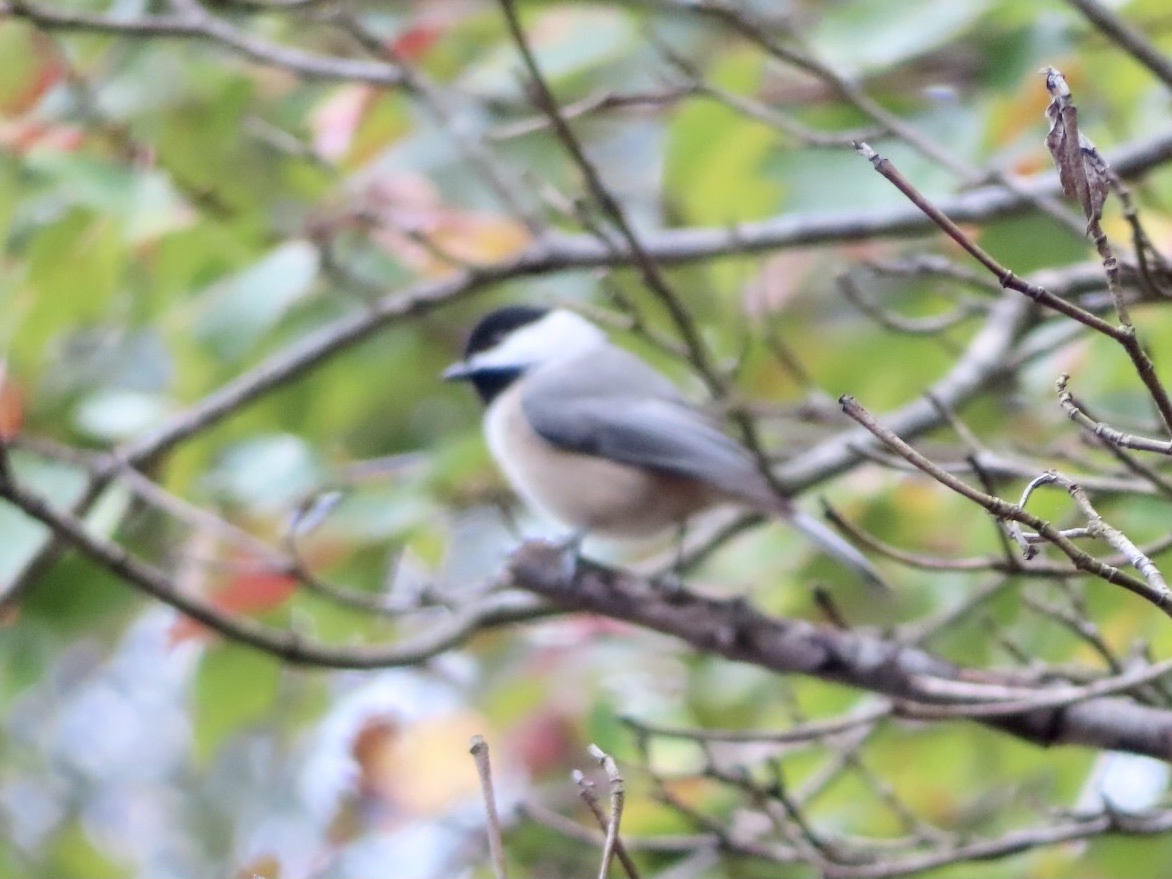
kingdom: Animalia
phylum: Chordata
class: Aves
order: Passeriformes
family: Paridae
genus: Poecile
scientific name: Poecile carolinensis
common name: Carolina chickadee
